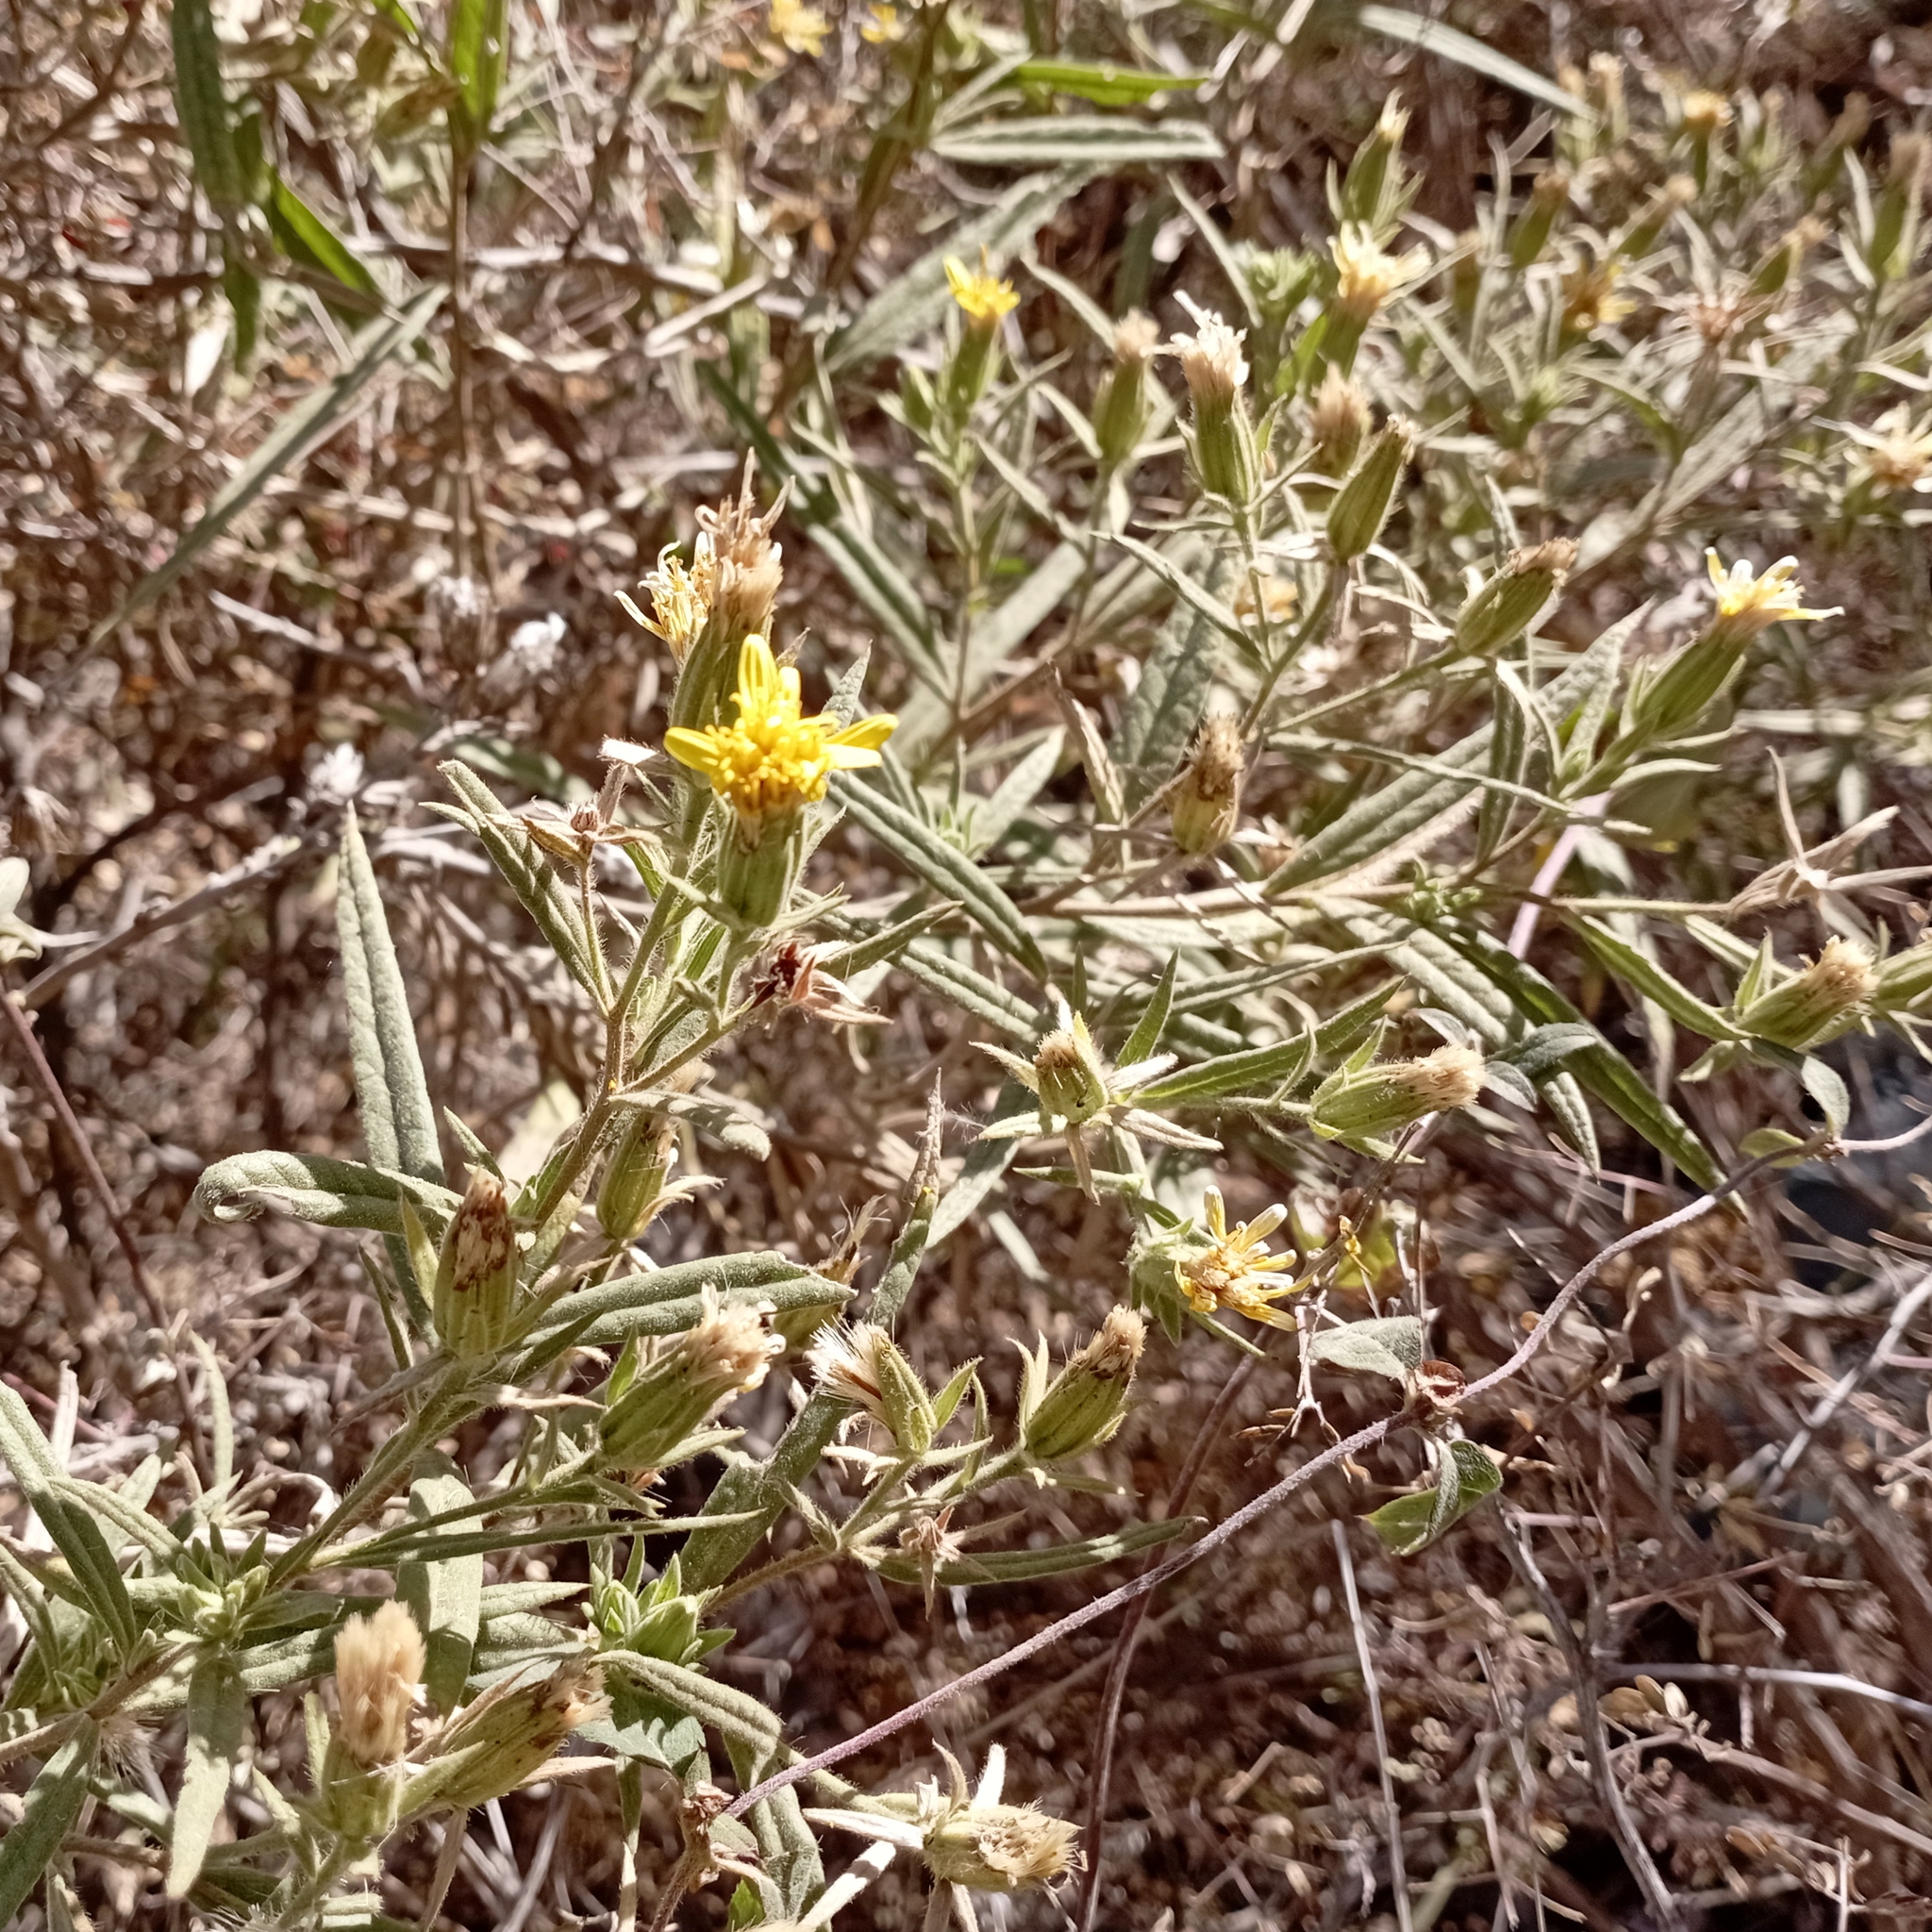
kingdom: Plantae
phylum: Tracheophyta
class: Magnoliopsida
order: Asterales
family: Asteraceae
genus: Trixis
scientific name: Trixis angustifolia
